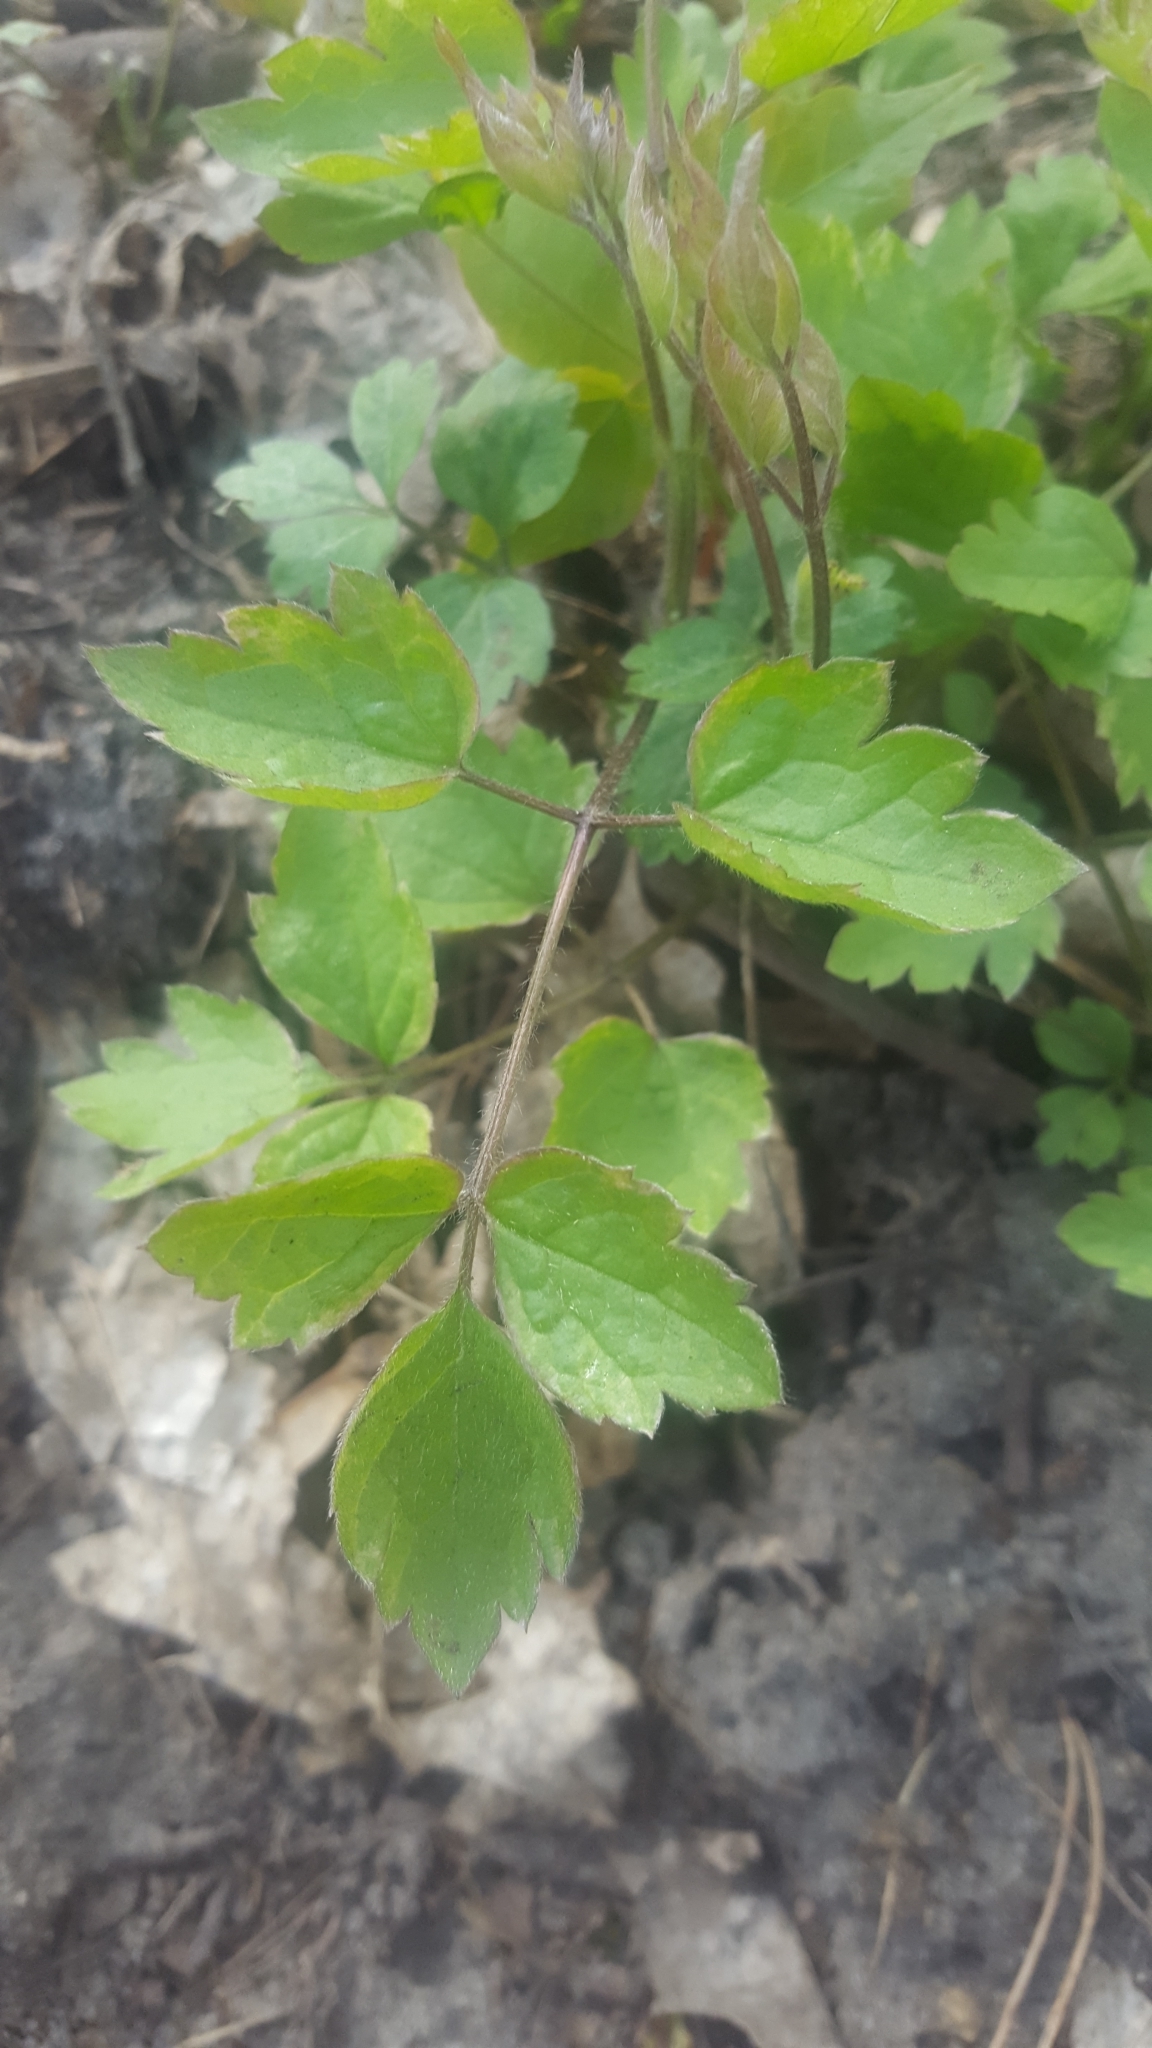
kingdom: Plantae
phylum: Tracheophyta
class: Magnoliopsida
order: Ranunculales
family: Ranunculaceae
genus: Clematis
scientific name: Clematis vitalba
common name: Evergreen clematis
